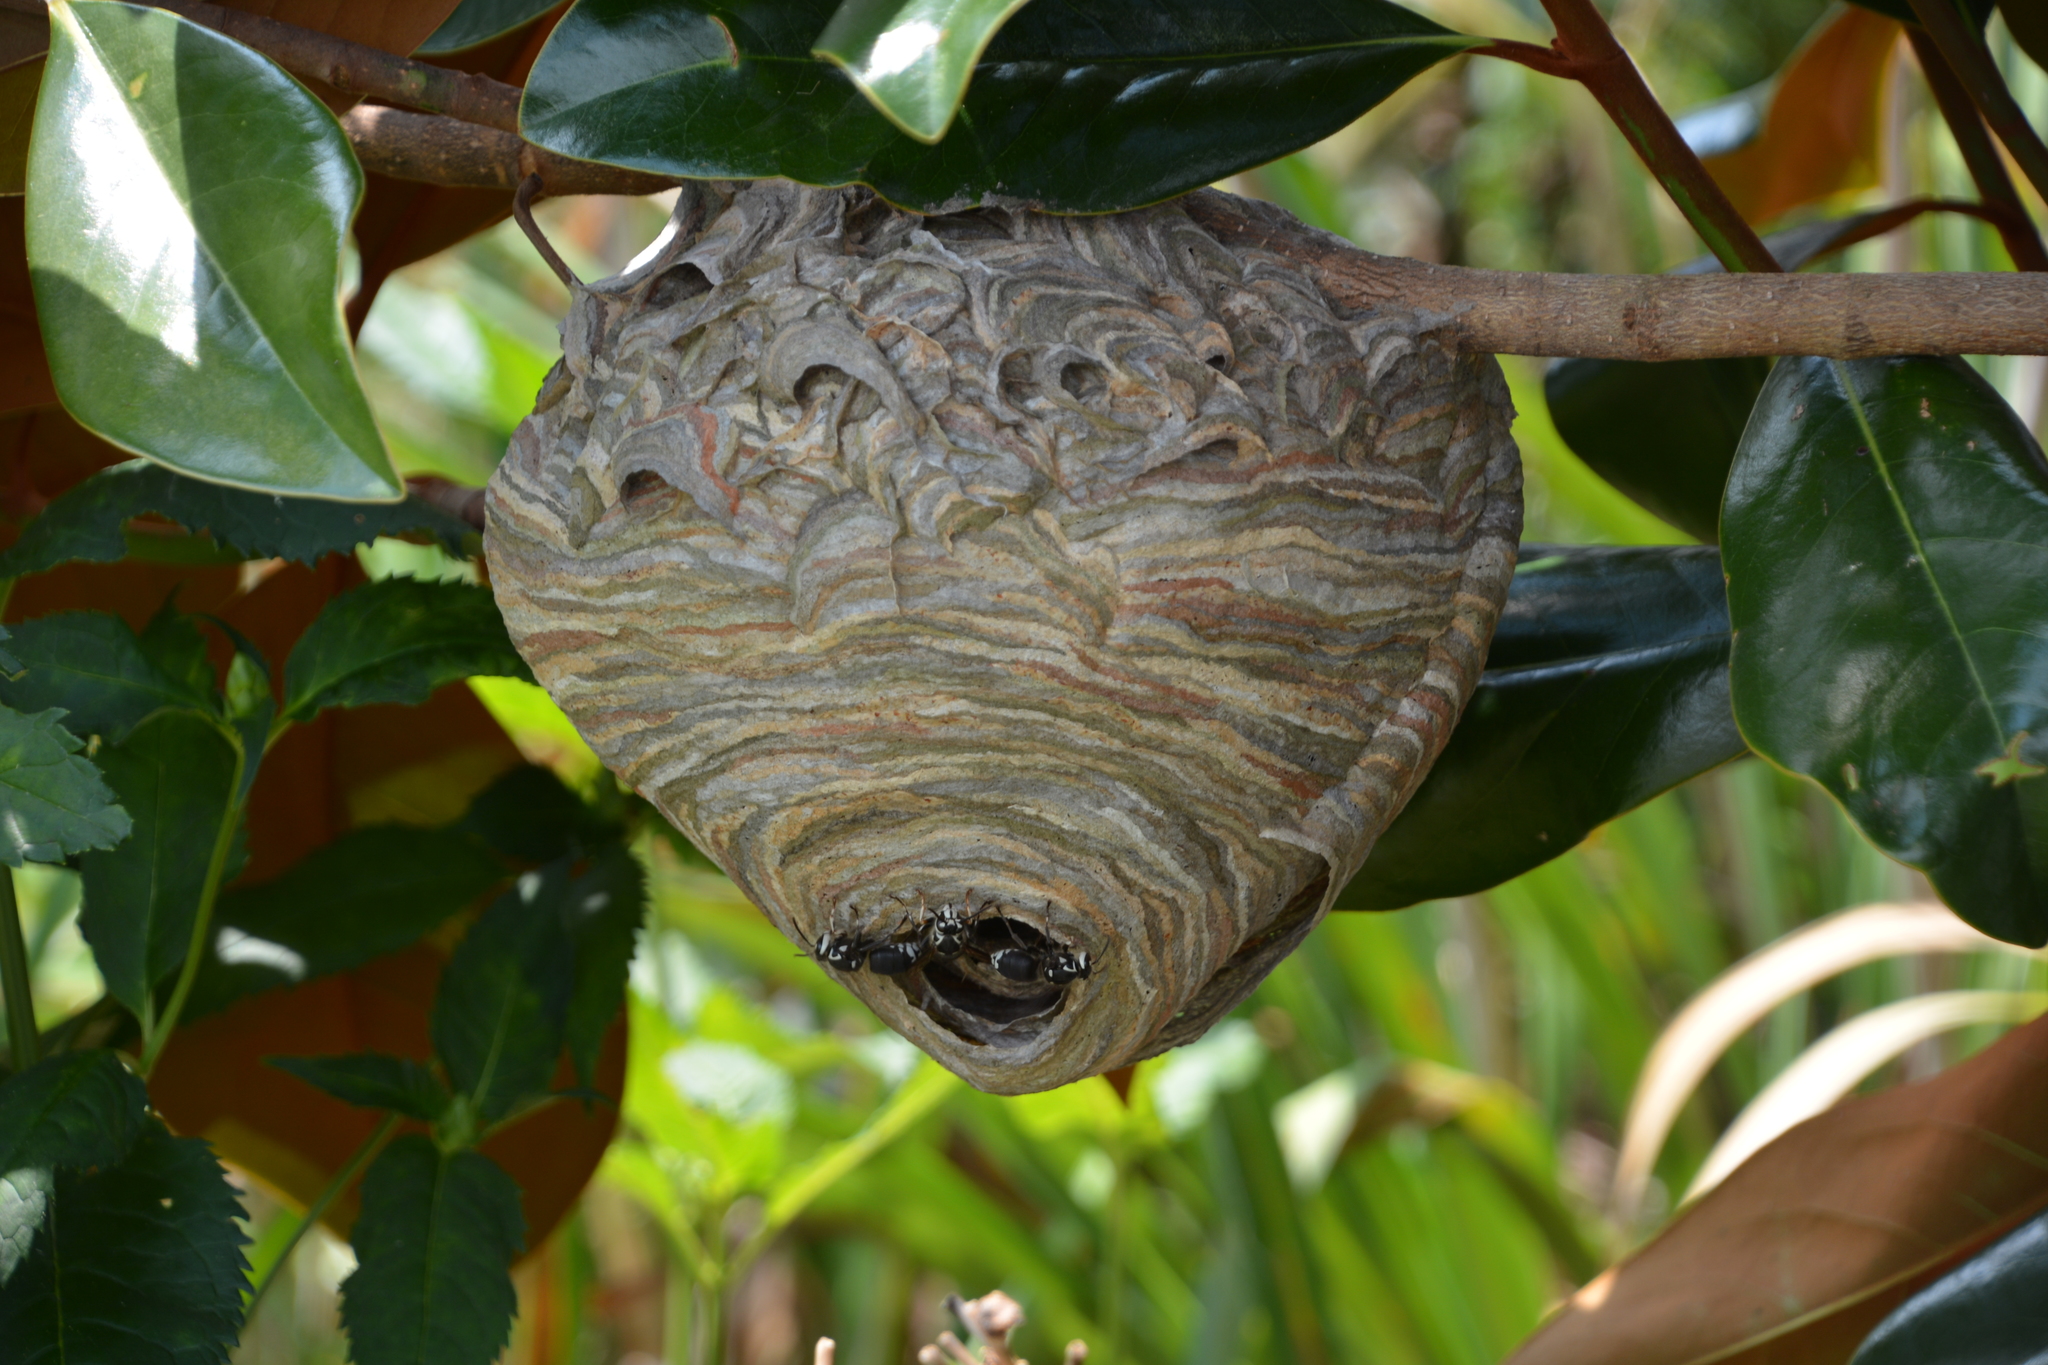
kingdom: Animalia
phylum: Arthropoda
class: Insecta
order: Hymenoptera
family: Vespidae
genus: Dolichovespula
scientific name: Dolichovespula maculata
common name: Bald-faced hornet
